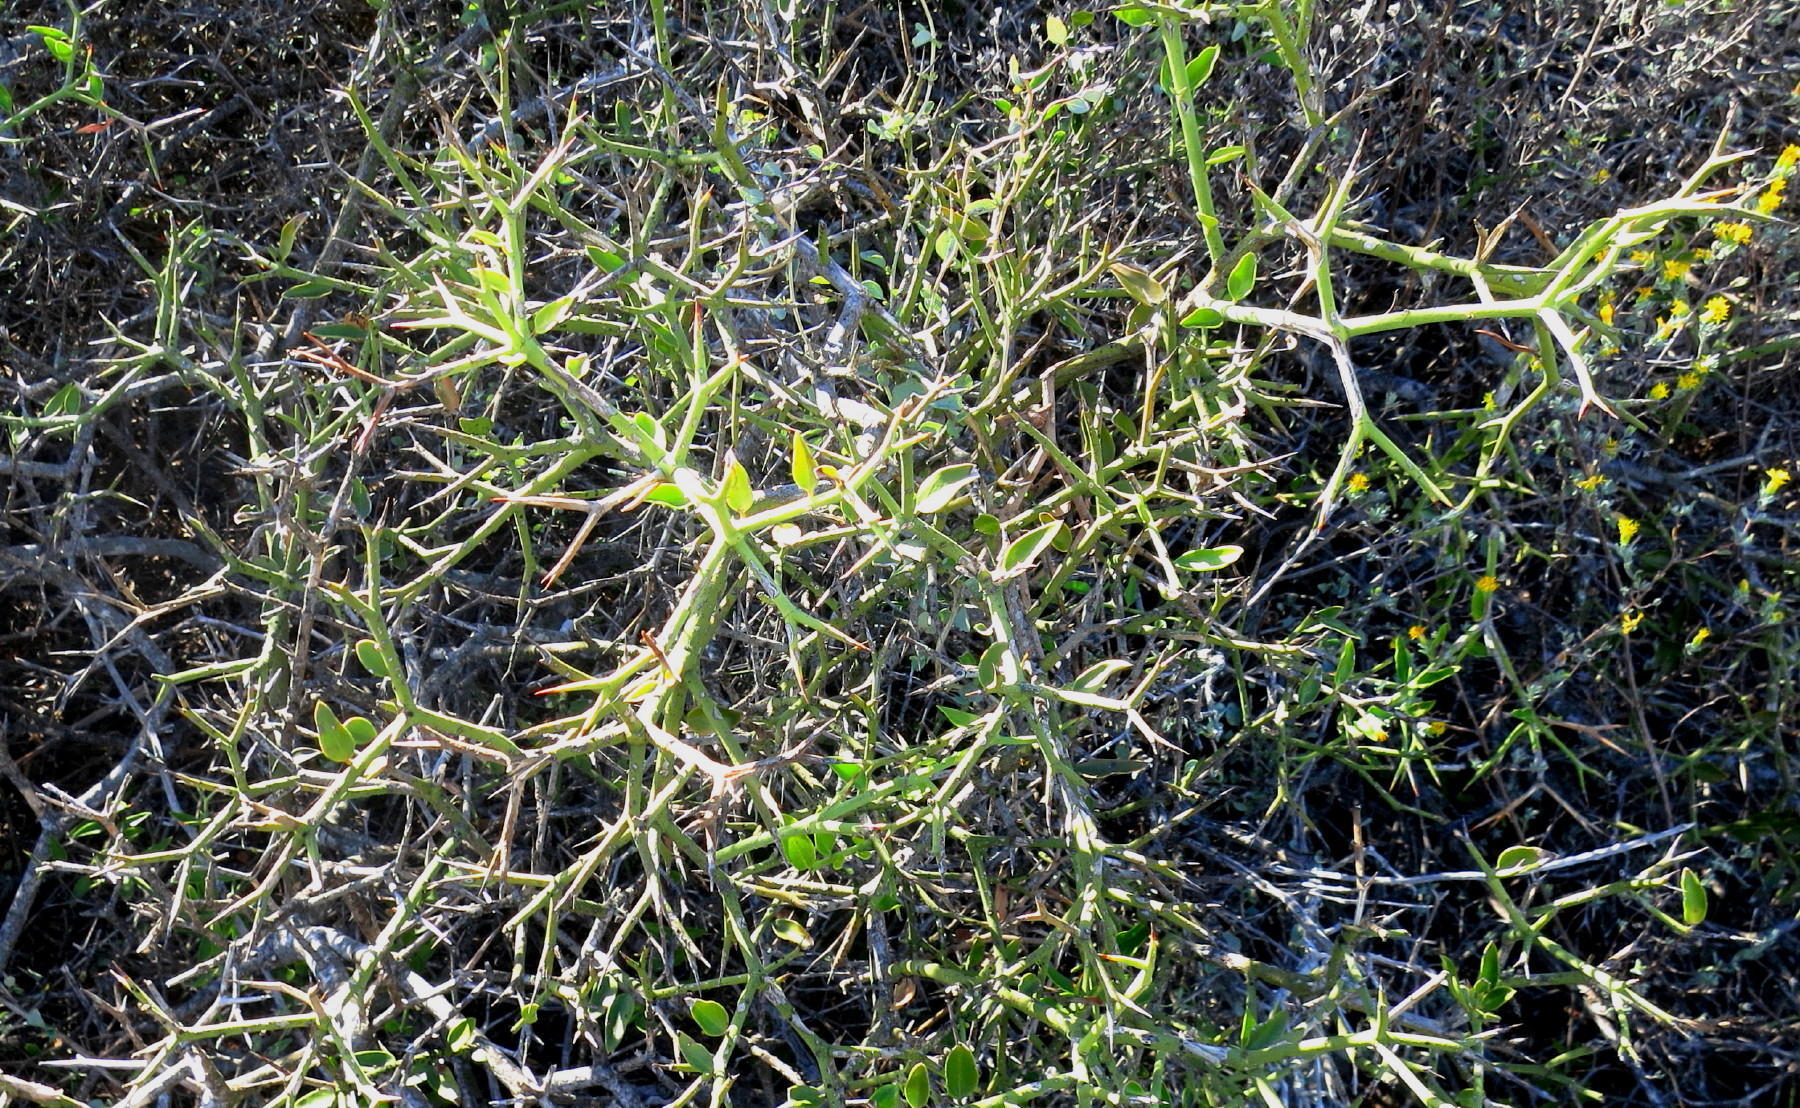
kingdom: Plantae
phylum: Tracheophyta
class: Magnoliopsida
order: Gentianales
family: Apocynaceae
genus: Carissa
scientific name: Carissa haematocarpa
